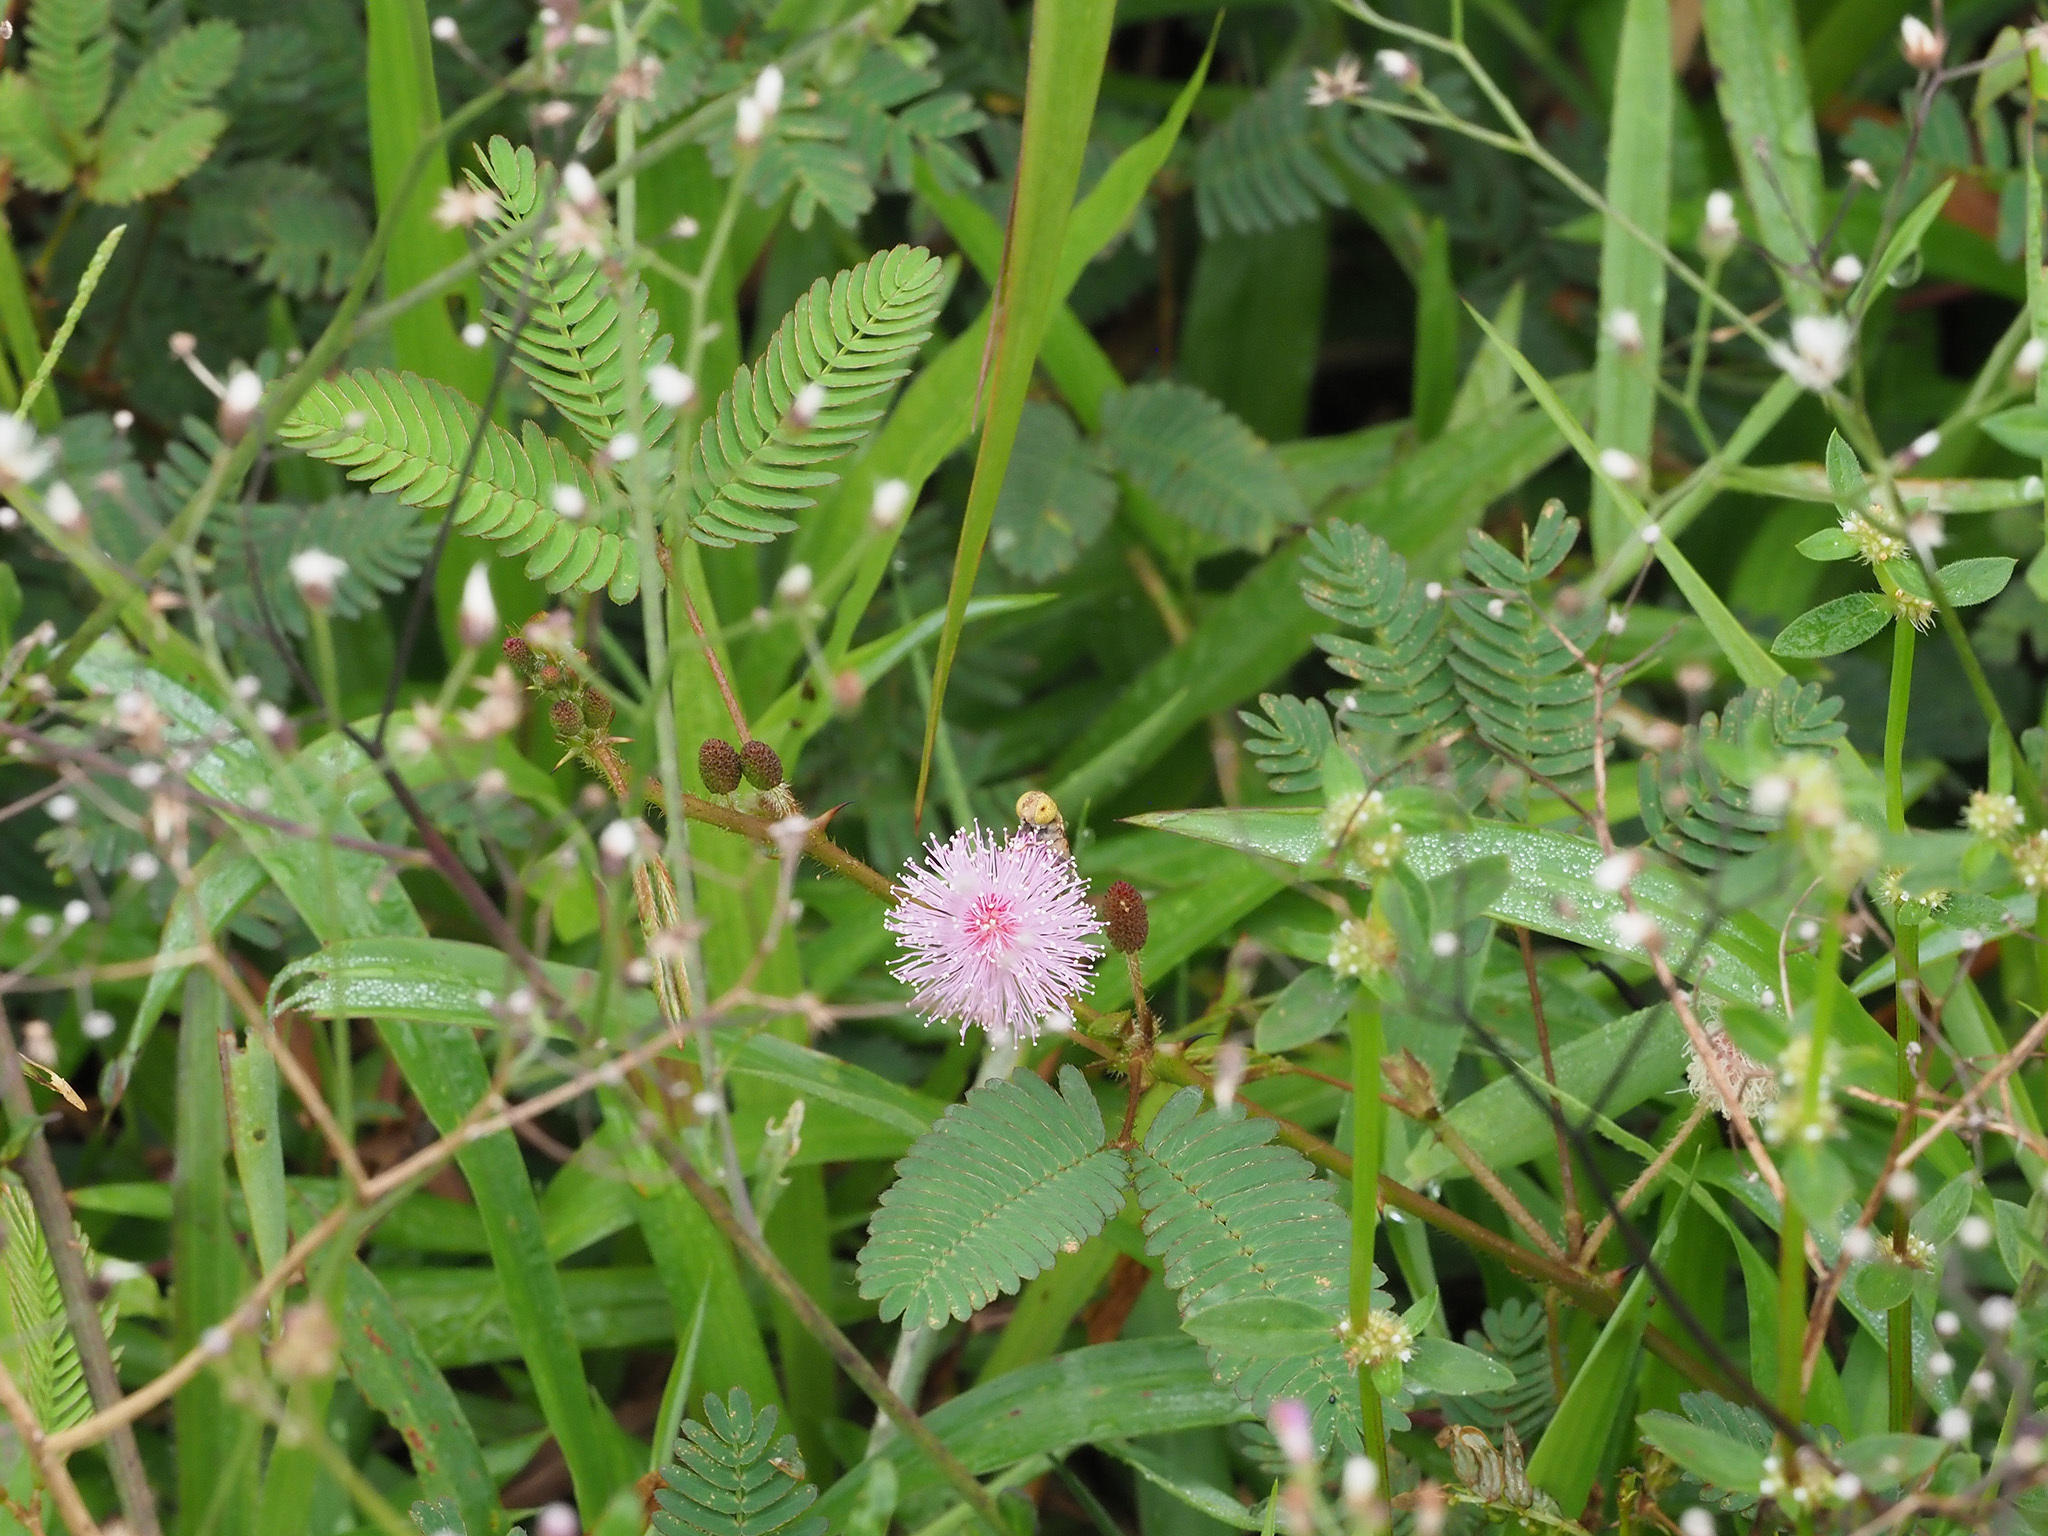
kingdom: Plantae
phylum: Tracheophyta
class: Magnoliopsida
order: Fabales
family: Fabaceae
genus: Mimosa
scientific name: Mimosa pudica
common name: Sensitive plant
